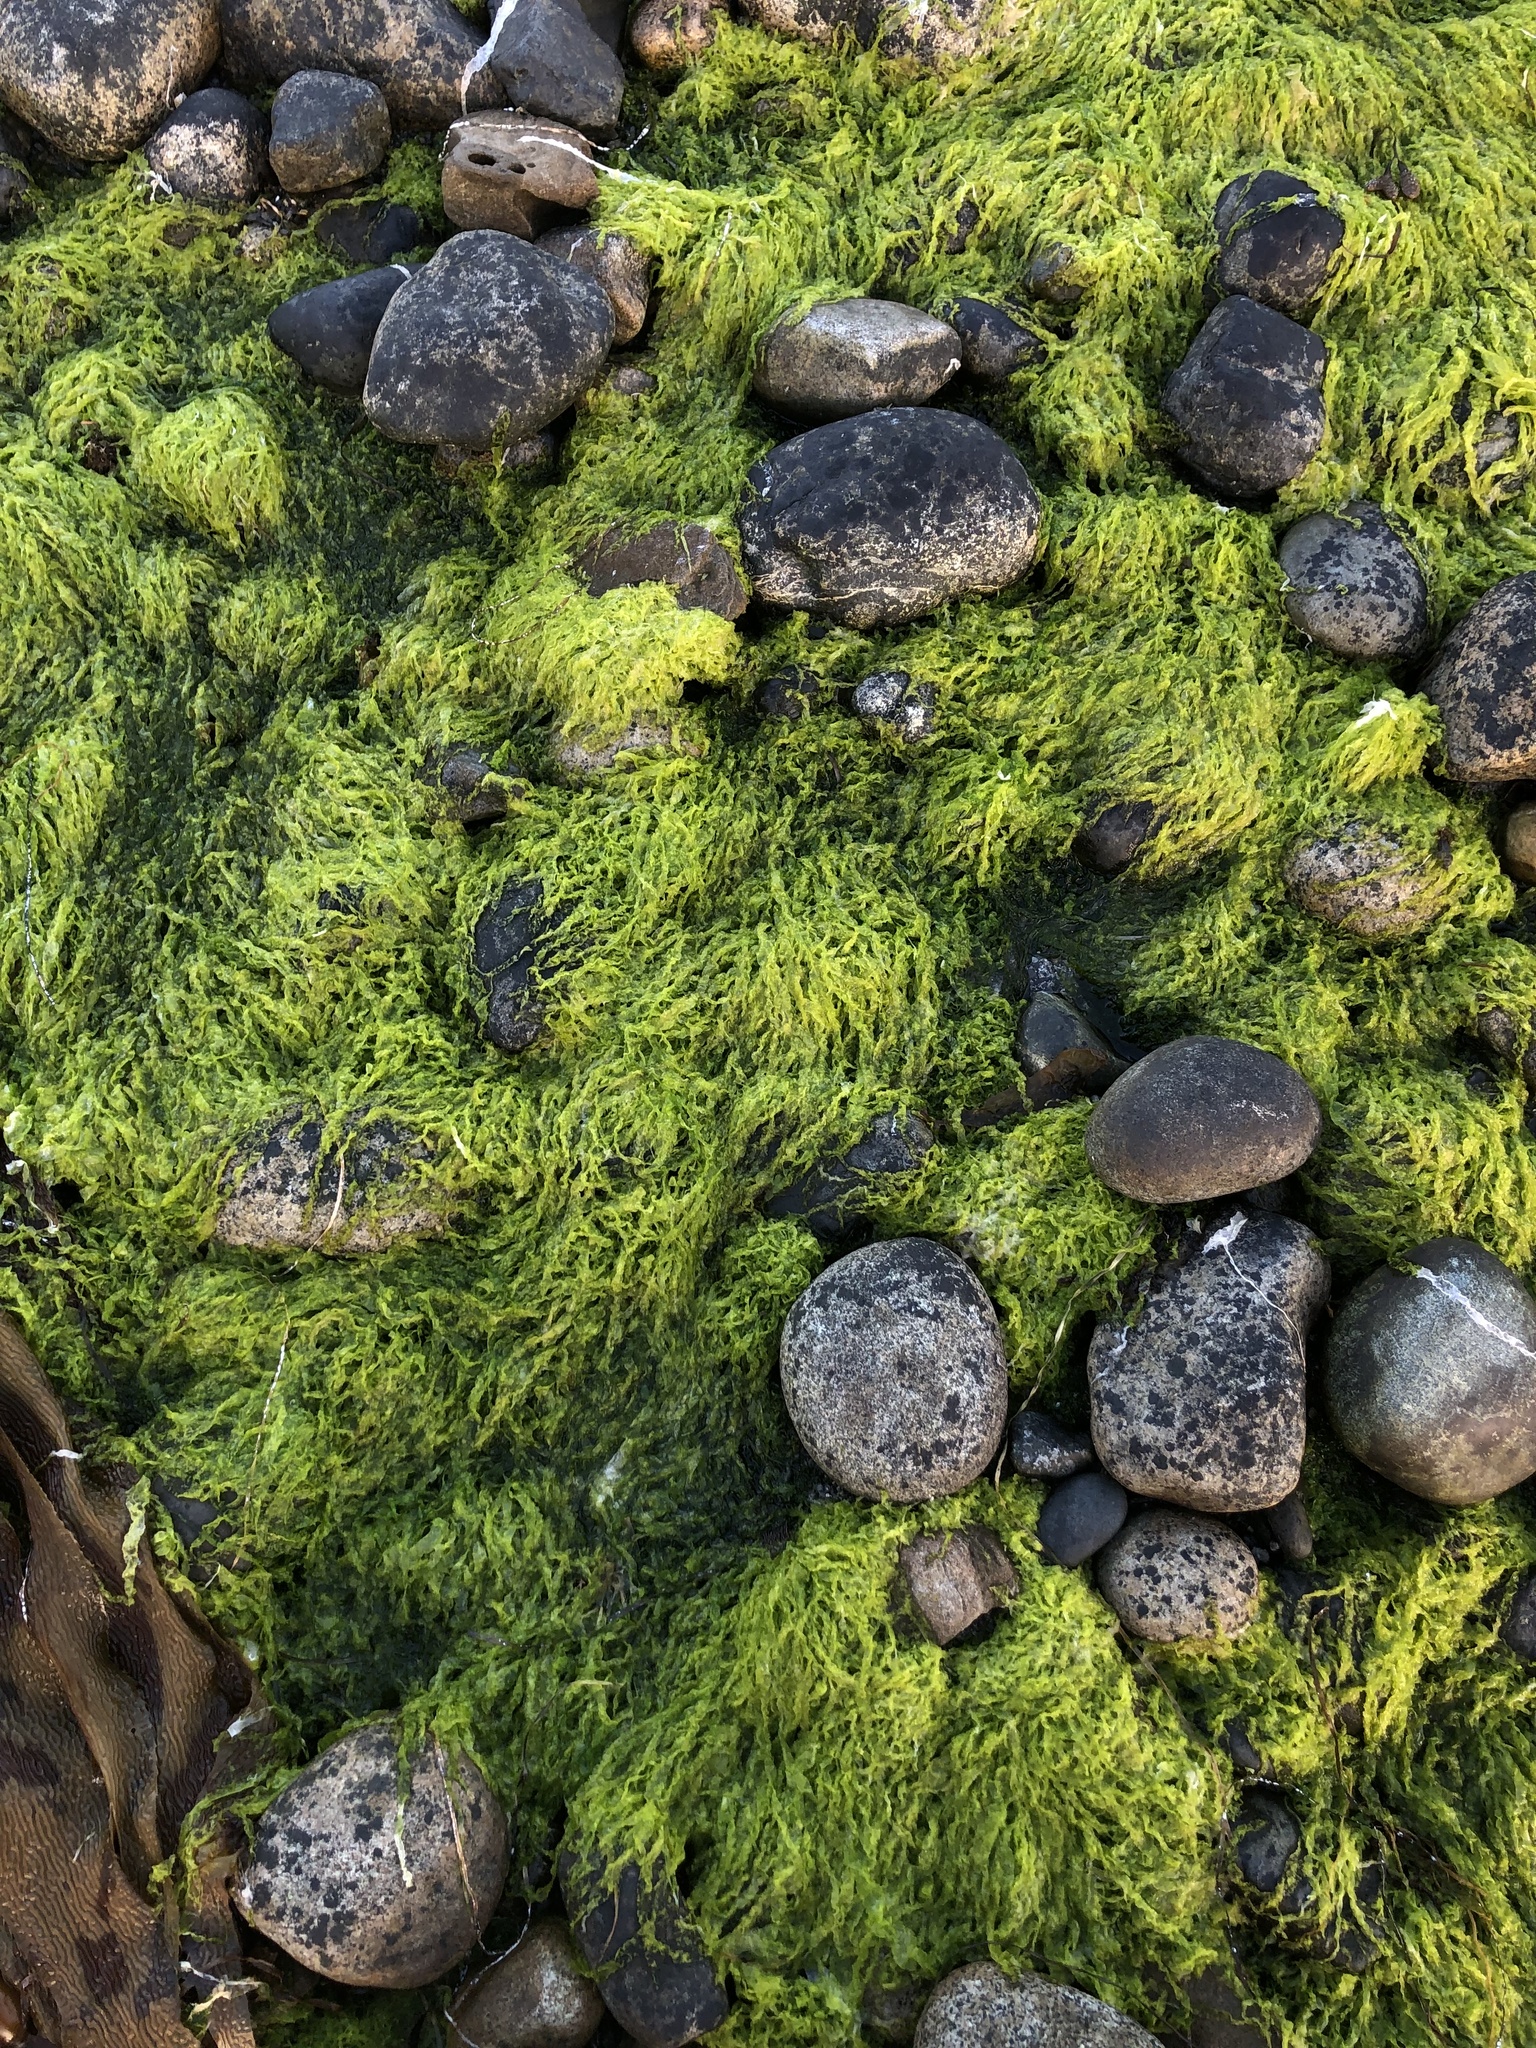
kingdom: Plantae
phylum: Chlorophyta
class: Ulvophyceae
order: Ulvales
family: Ulvaceae
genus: Ulva
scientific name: Ulva intestinalis
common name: Gut weed
